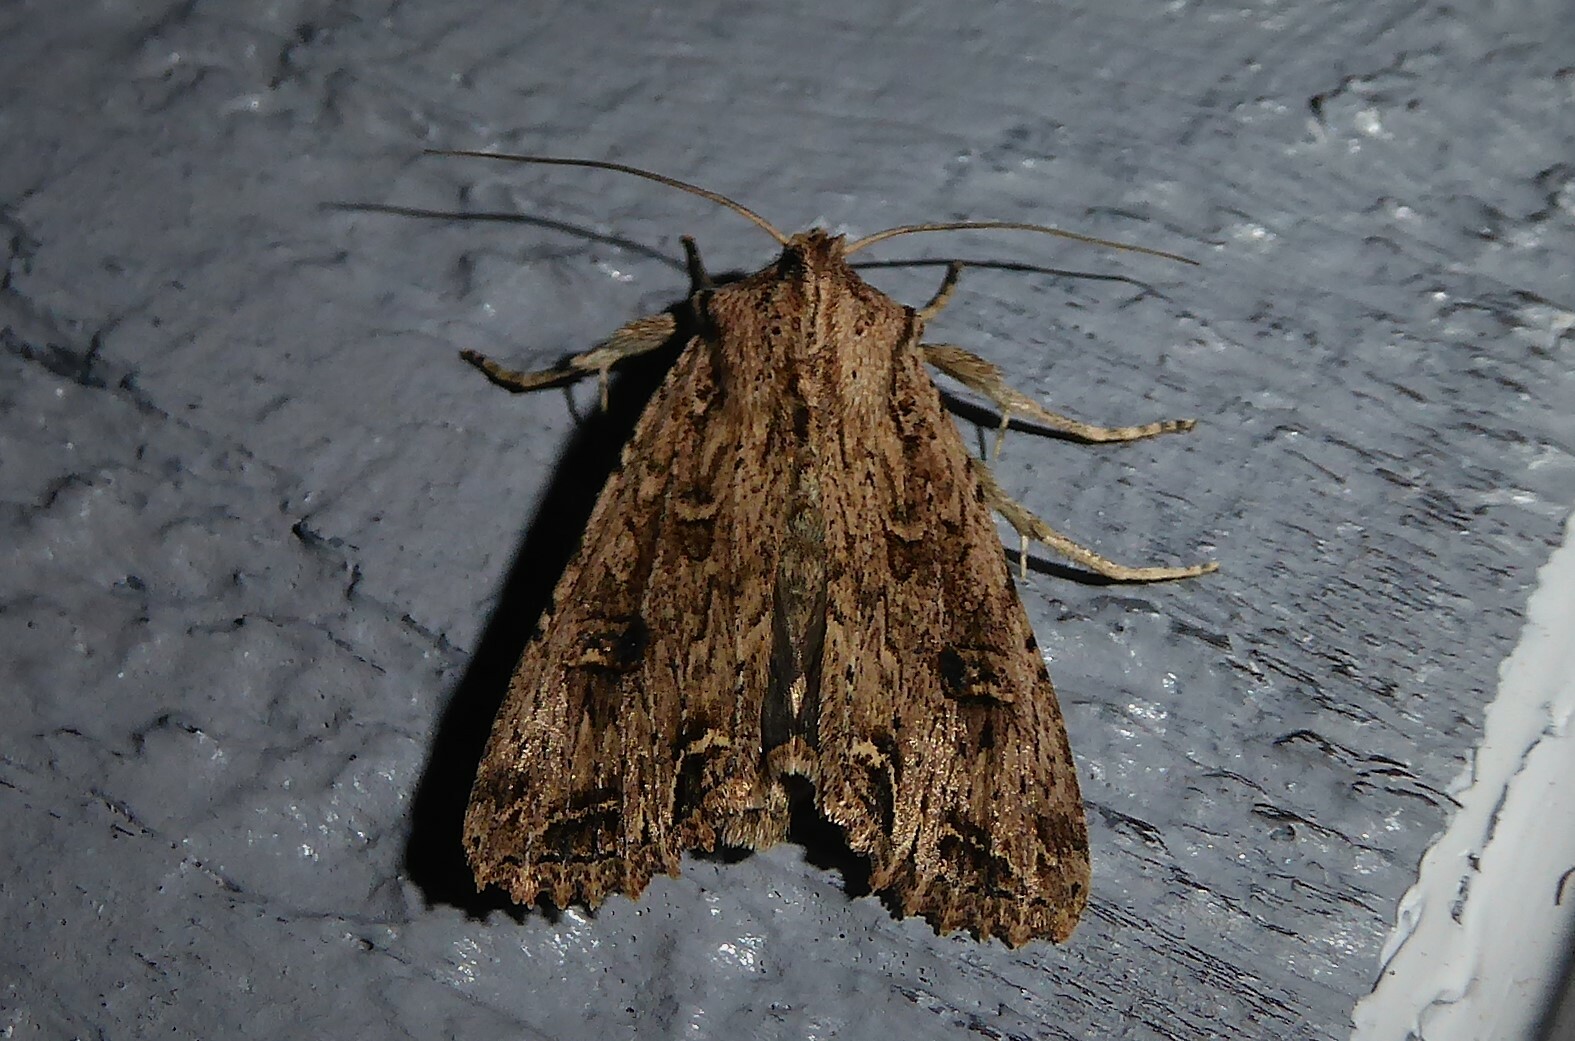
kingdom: Animalia
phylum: Arthropoda
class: Insecta
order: Lepidoptera
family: Noctuidae
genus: Ichneutica
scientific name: Ichneutica lignana
